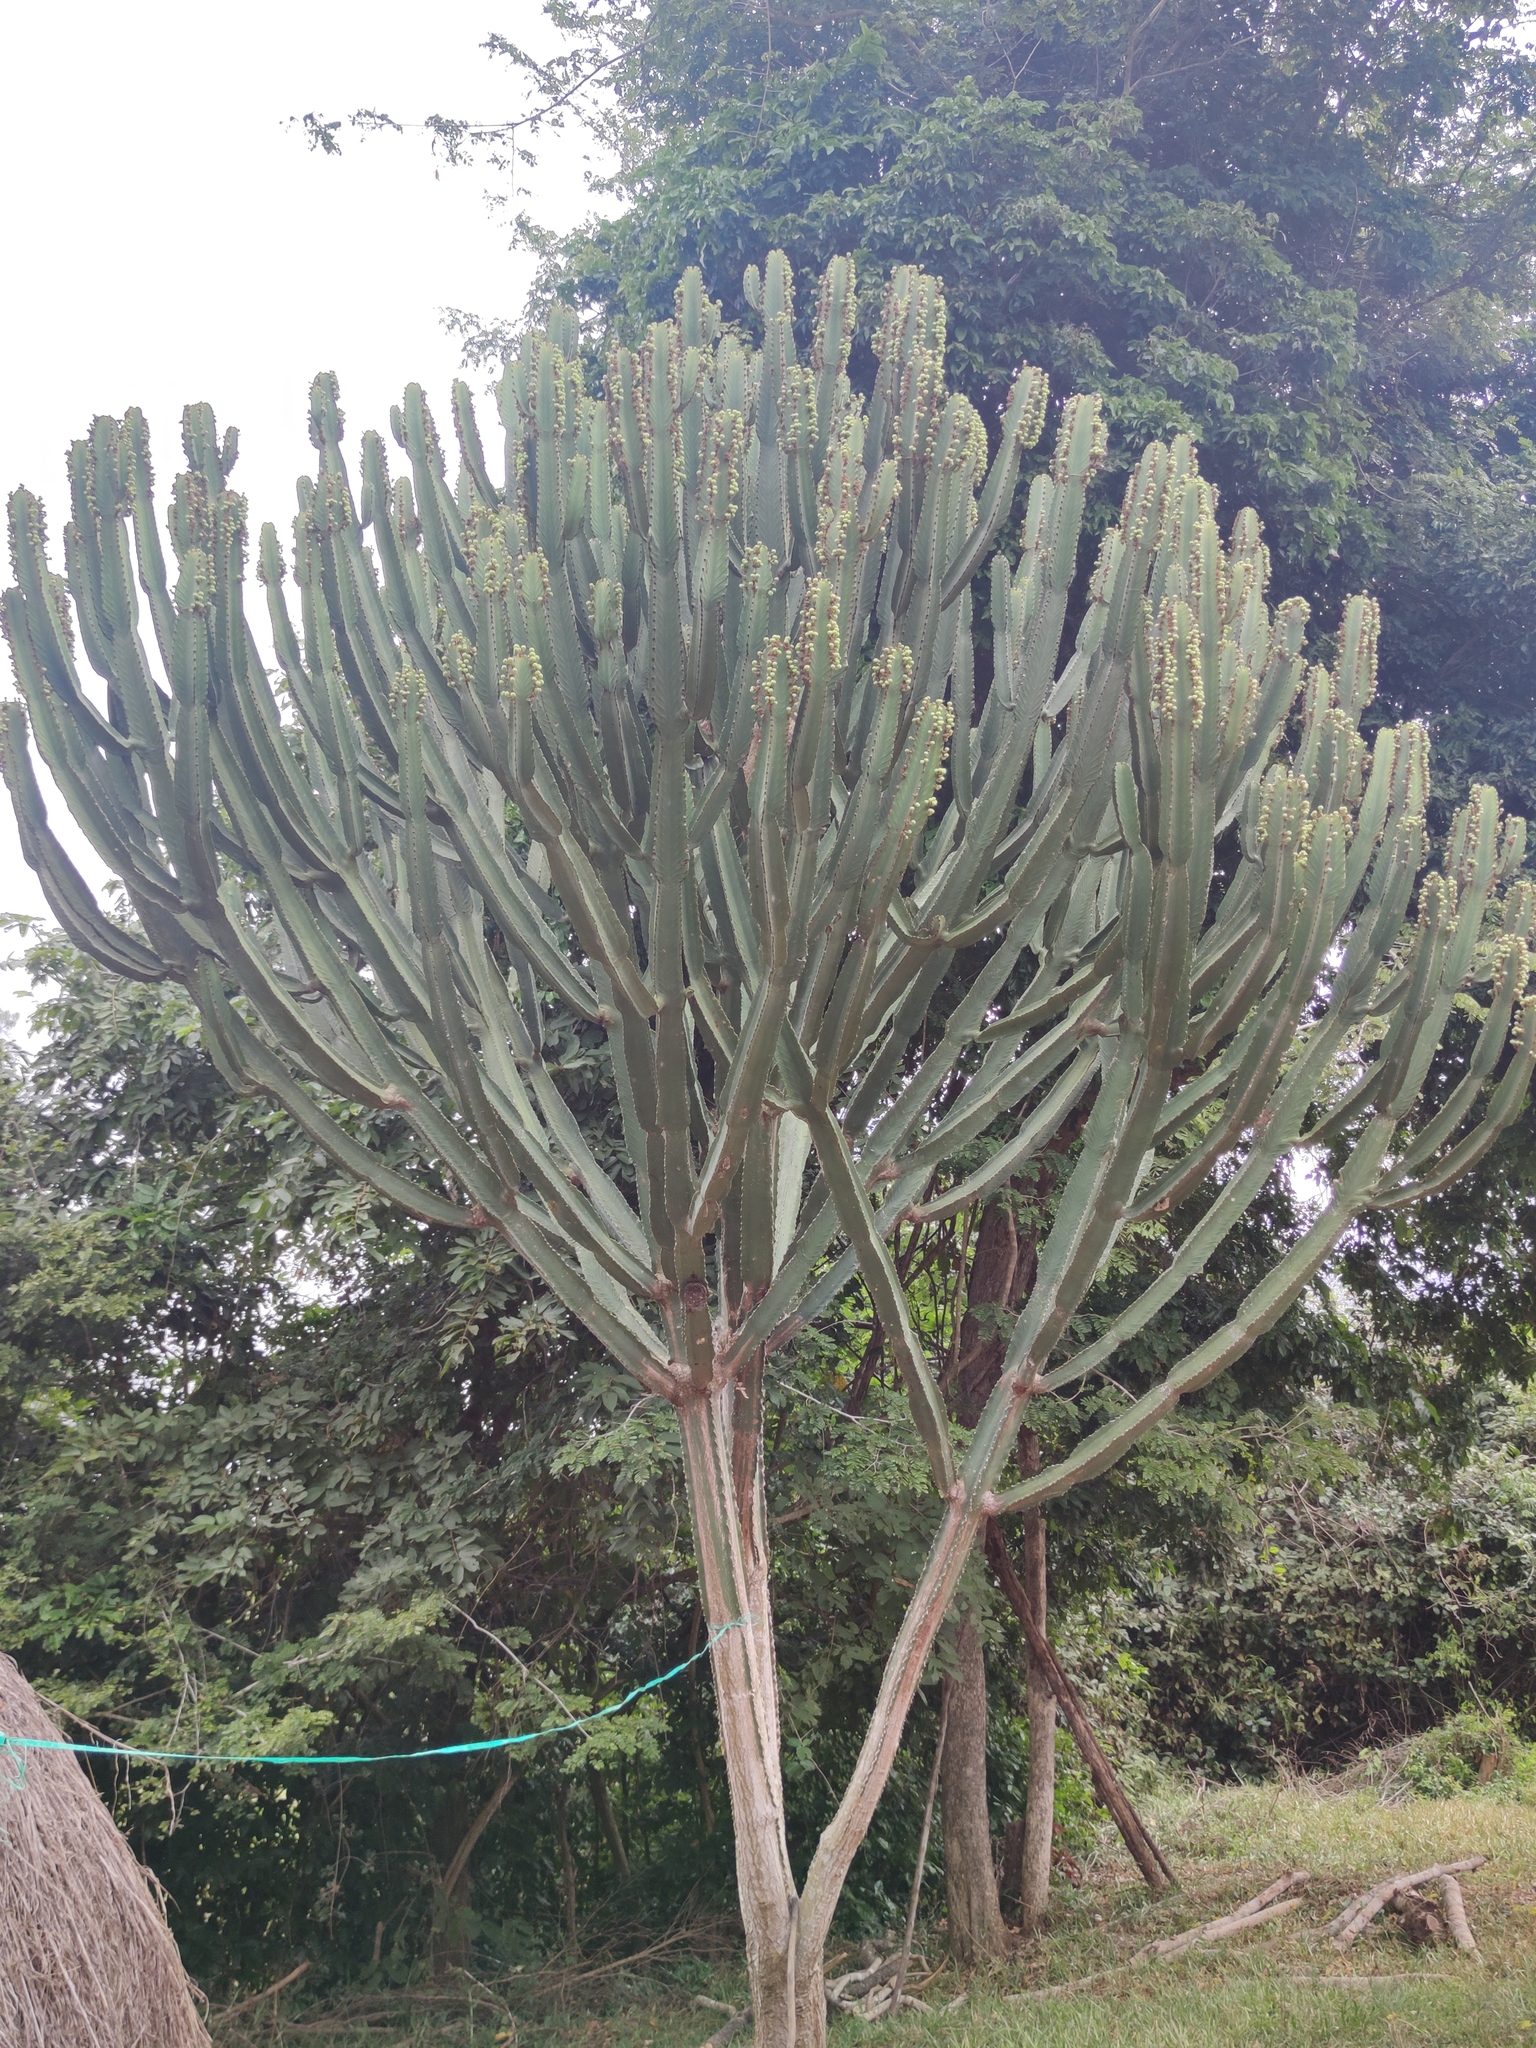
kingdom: Plantae
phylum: Tracheophyta
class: Magnoliopsida
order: Malpighiales
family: Euphorbiaceae
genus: Euphorbia
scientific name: Euphorbia ingens
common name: Cactus spurge
